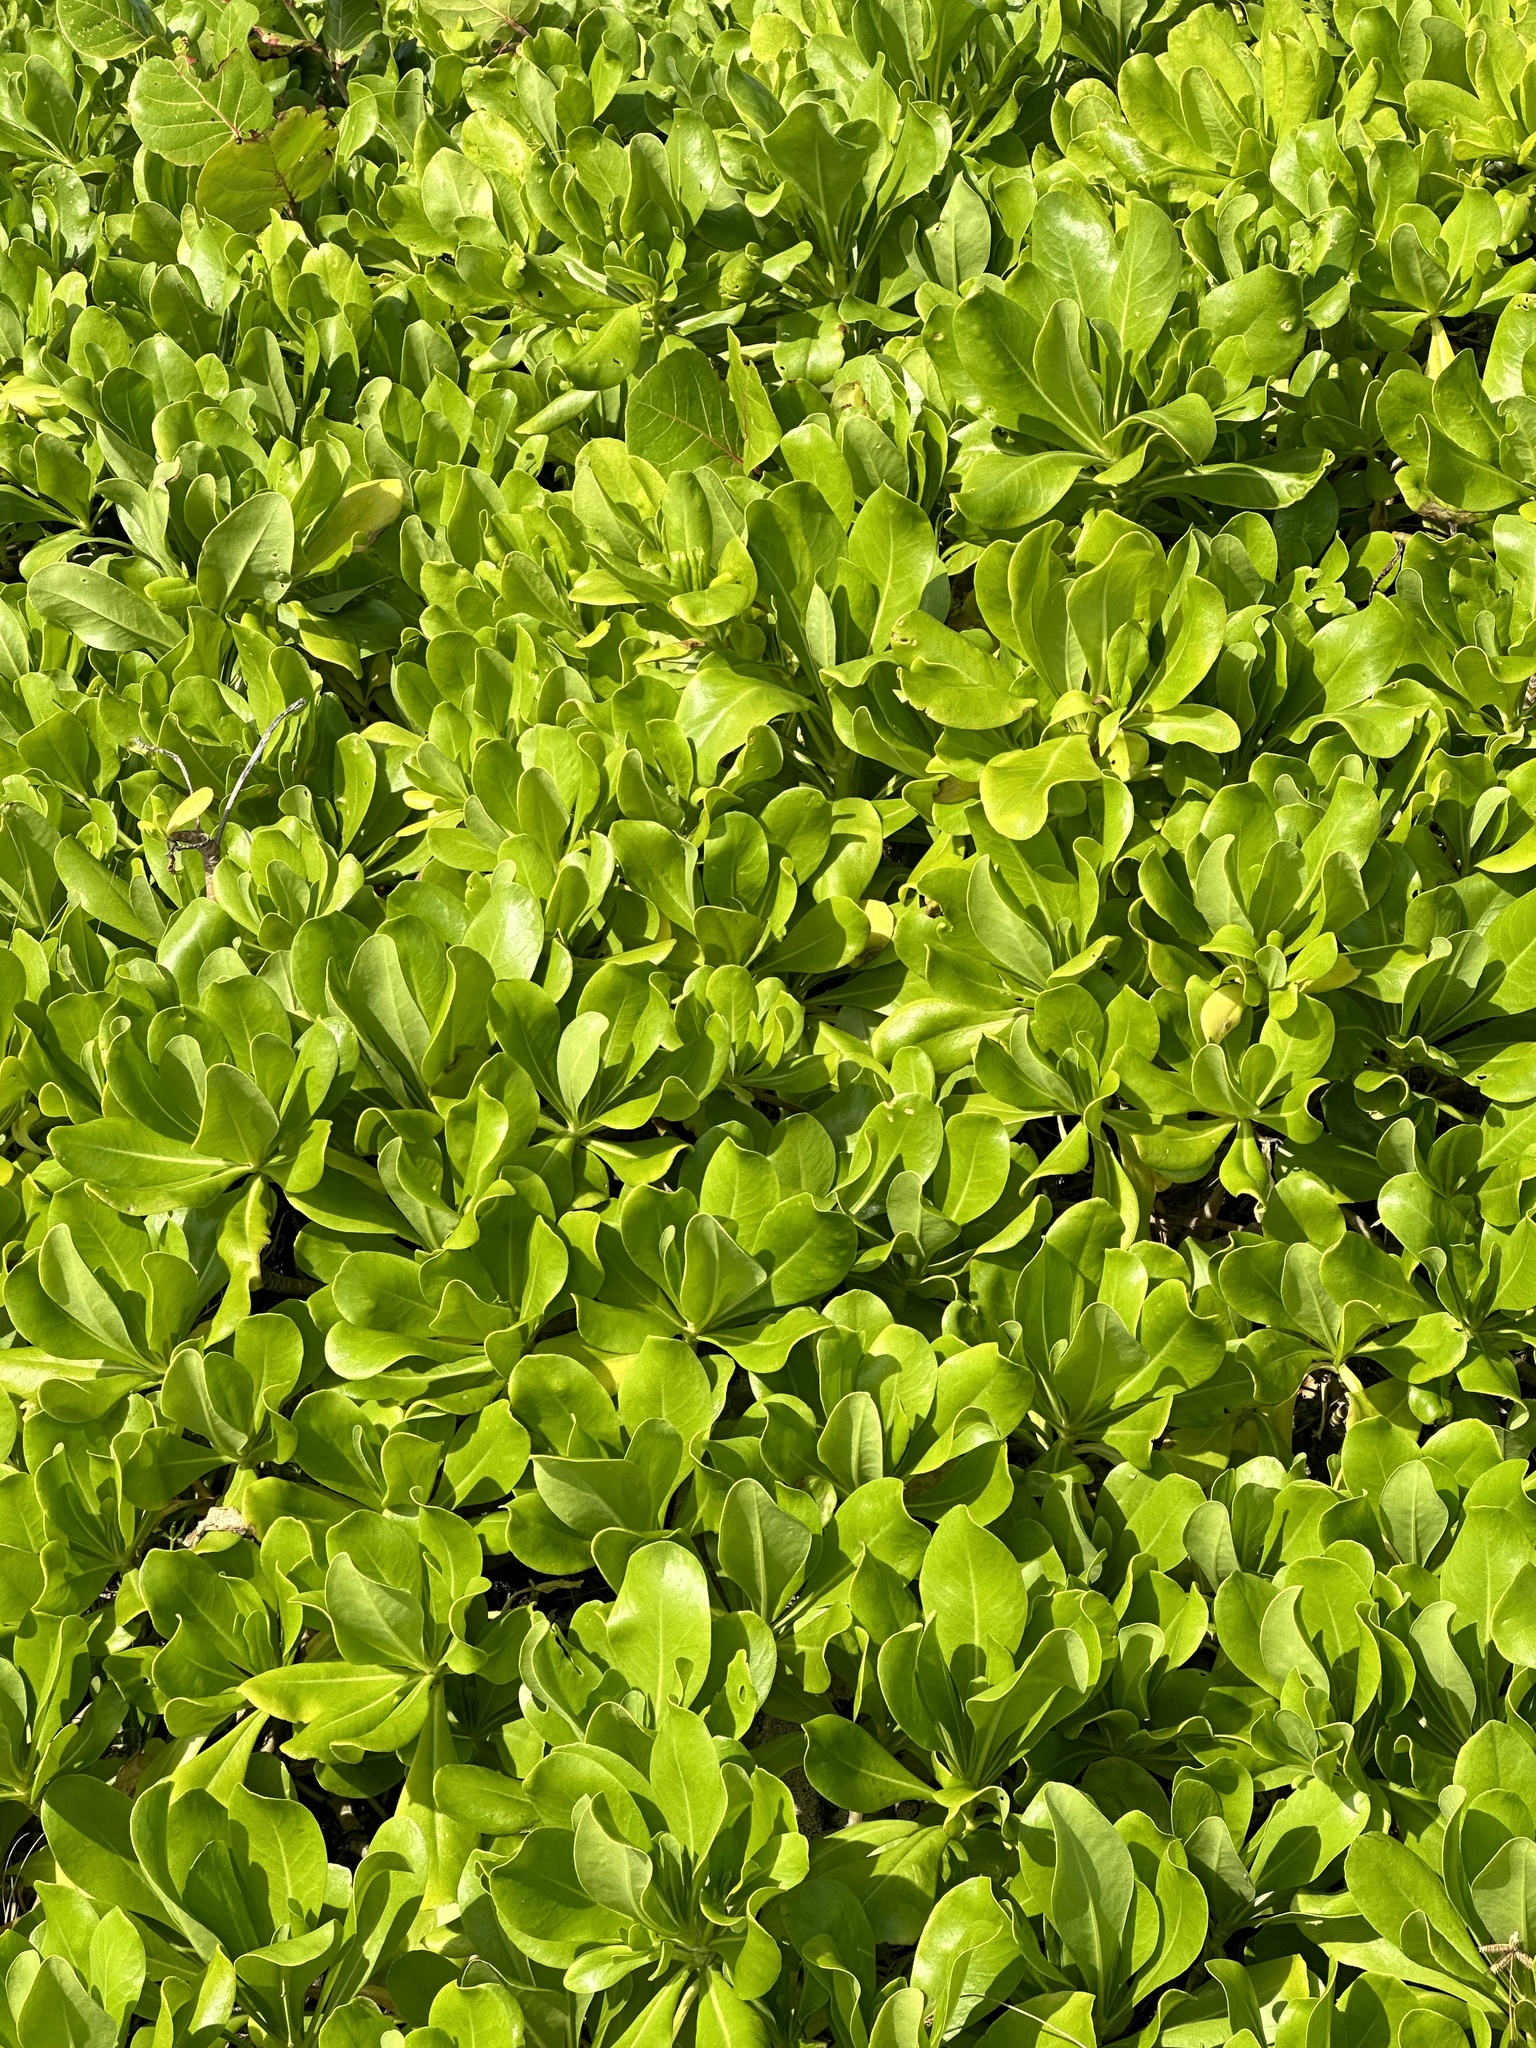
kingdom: Plantae
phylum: Tracheophyta
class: Magnoliopsida
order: Asterales
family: Goodeniaceae
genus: Scaevola
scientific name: Scaevola taccada
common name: Sea lettucetree
